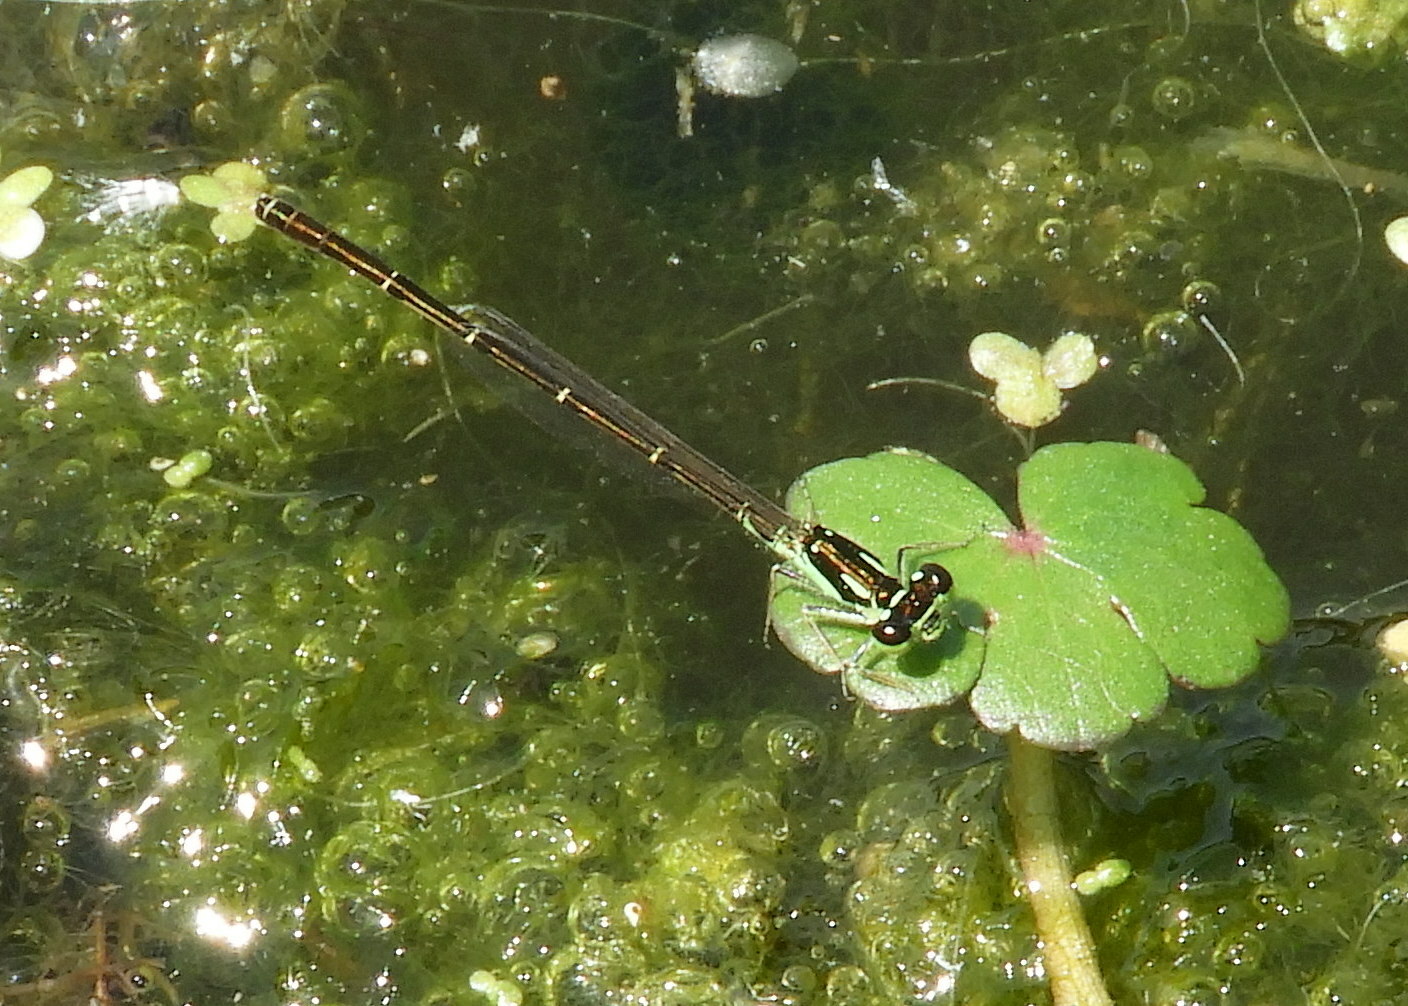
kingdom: Animalia
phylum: Arthropoda
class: Insecta
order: Odonata
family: Coenagrionidae
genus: Ischnura
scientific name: Ischnura posita
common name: Fragile forktail
